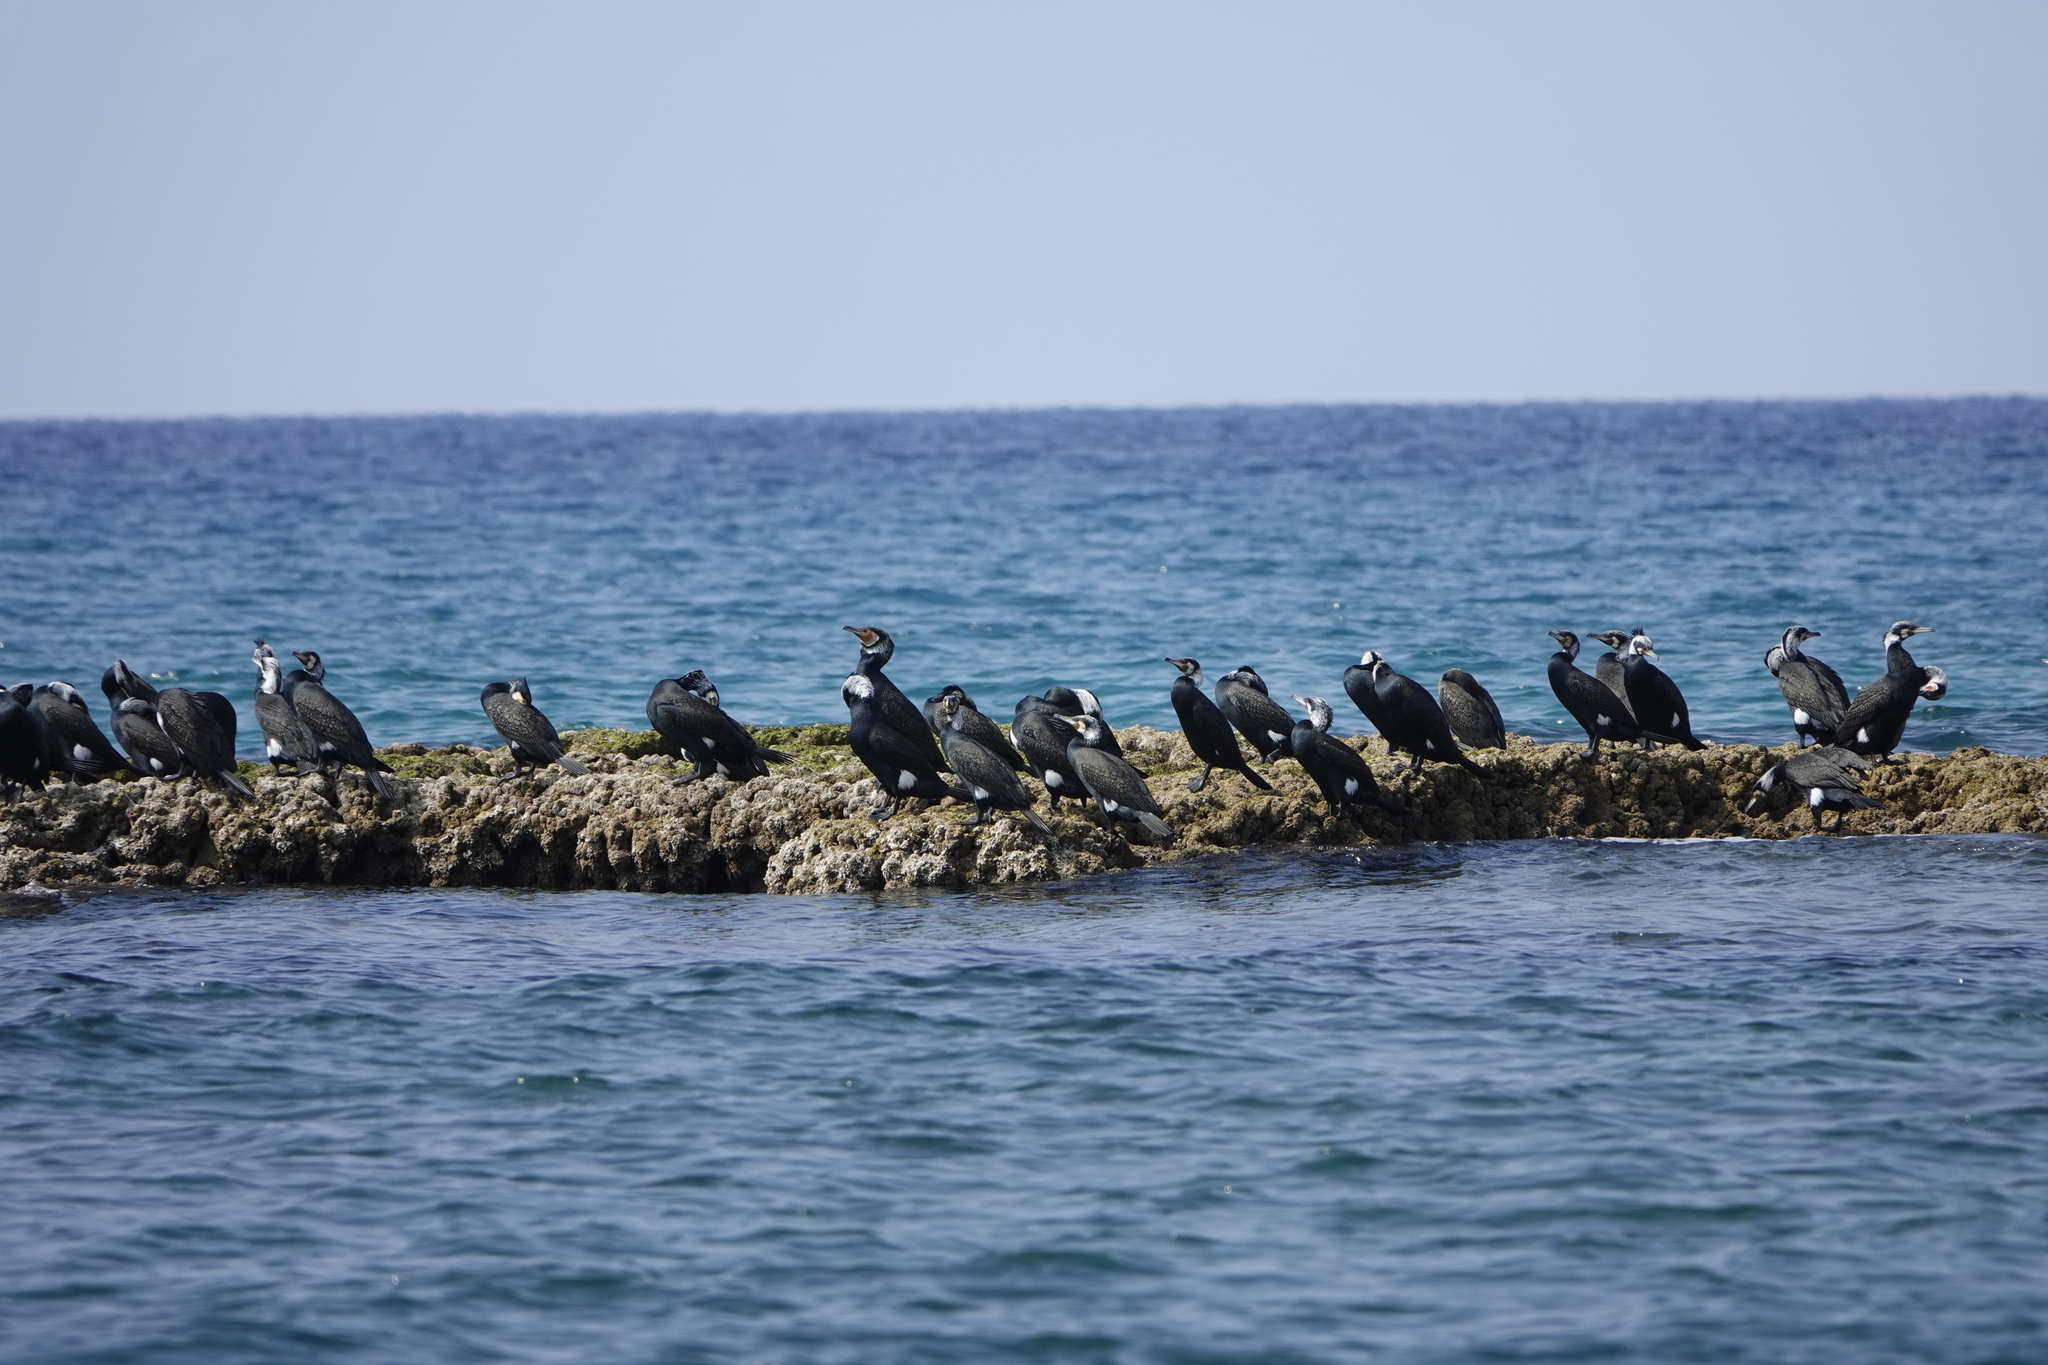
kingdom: Animalia
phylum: Chordata
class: Aves
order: Suliformes
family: Phalacrocoracidae
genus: Phalacrocorax
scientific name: Phalacrocorax carbo
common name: Great cormorant
